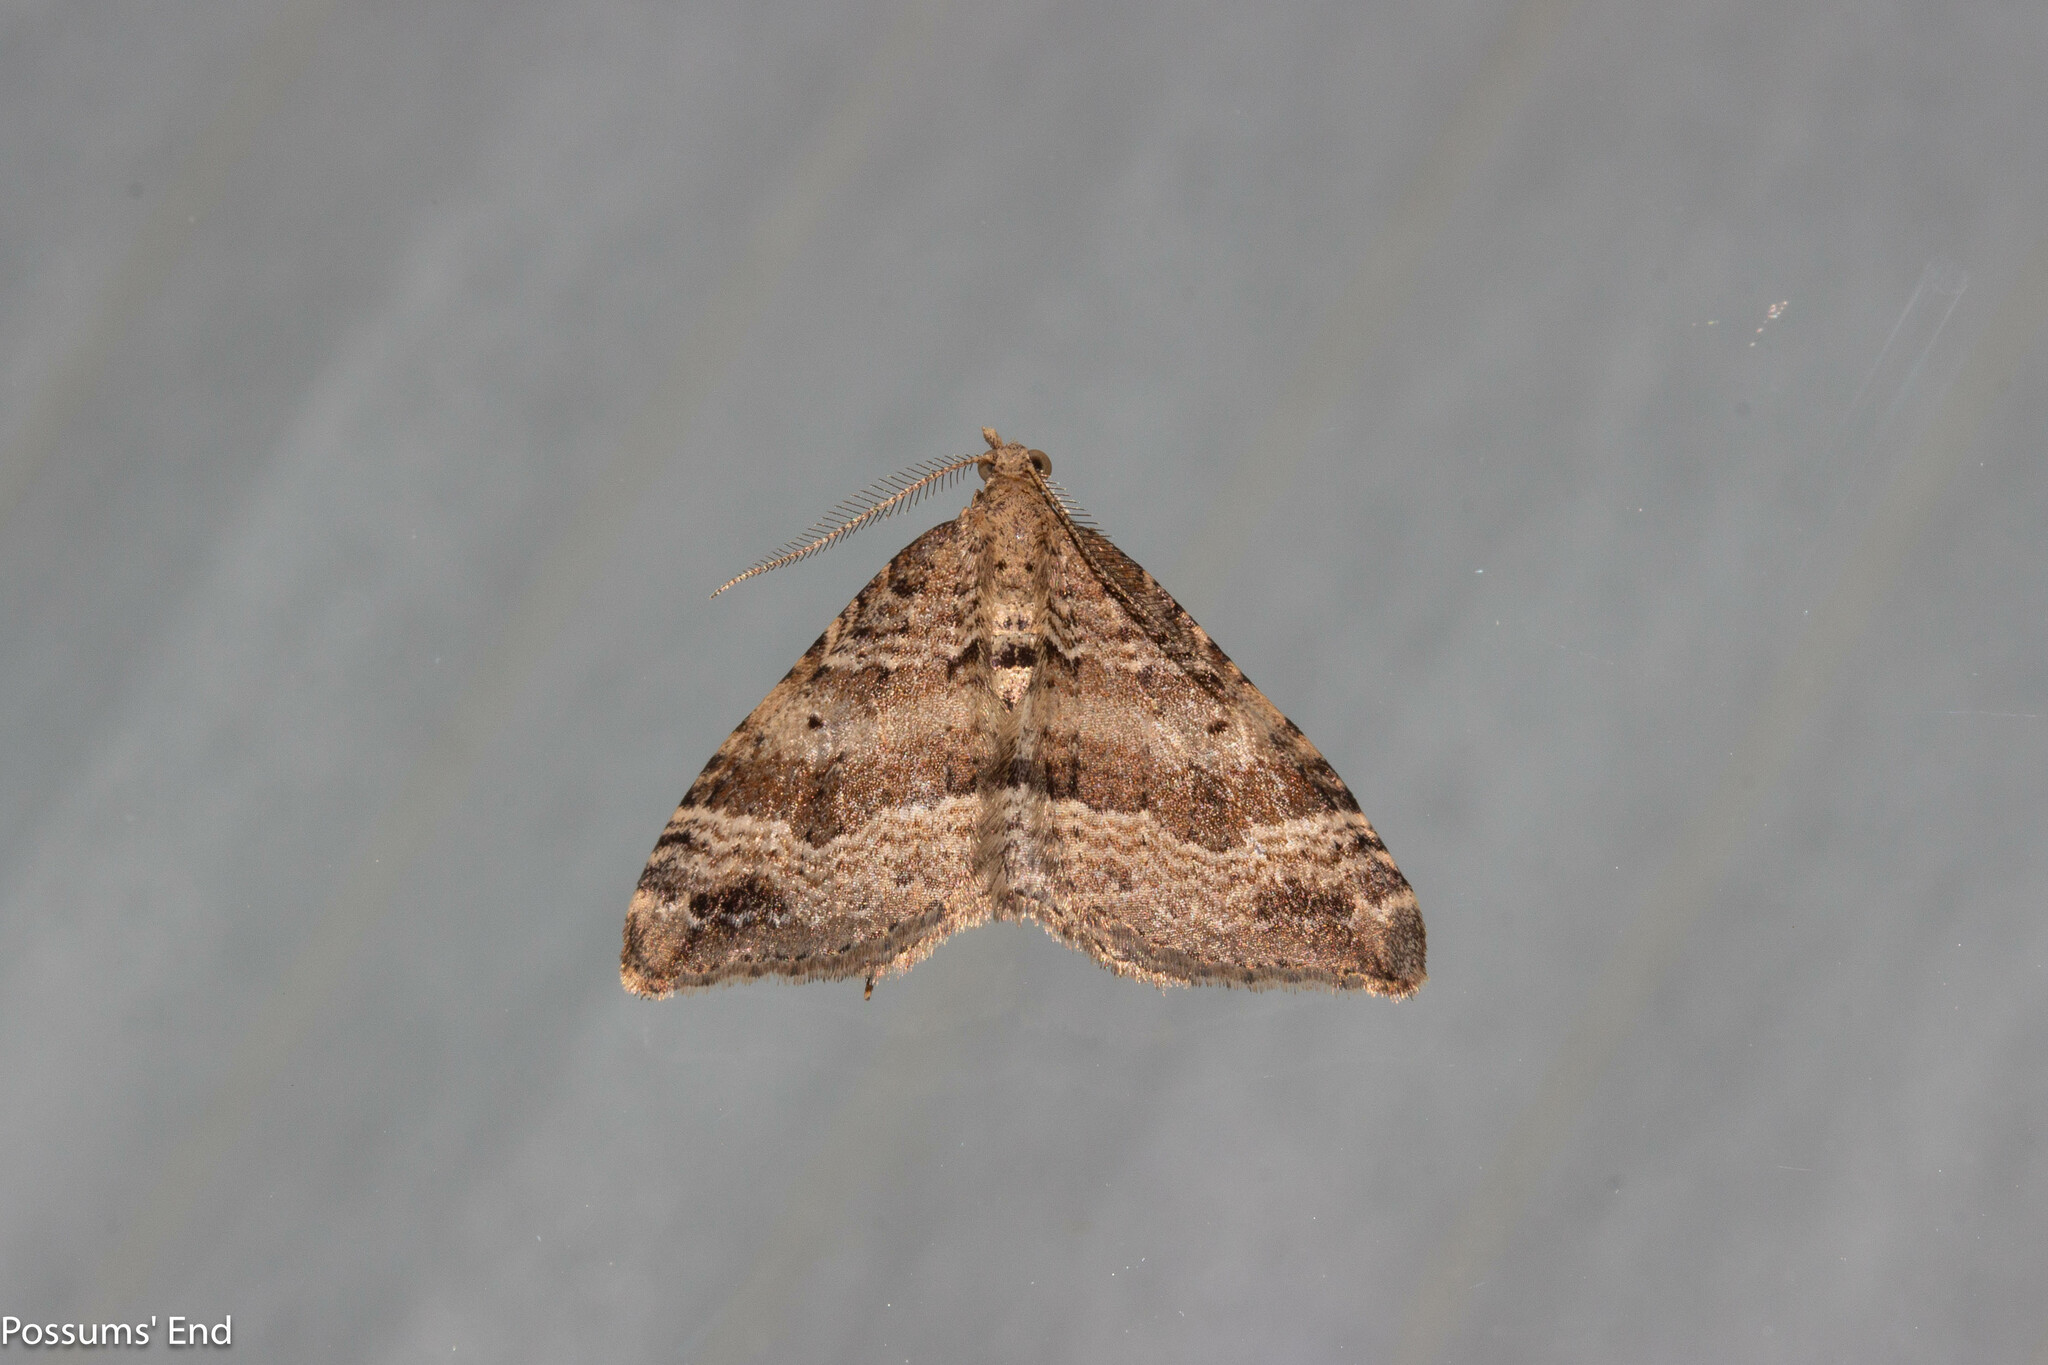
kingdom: Animalia
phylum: Arthropoda
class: Insecta
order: Lepidoptera
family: Geometridae
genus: Homodotis
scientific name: Homodotis falcata
